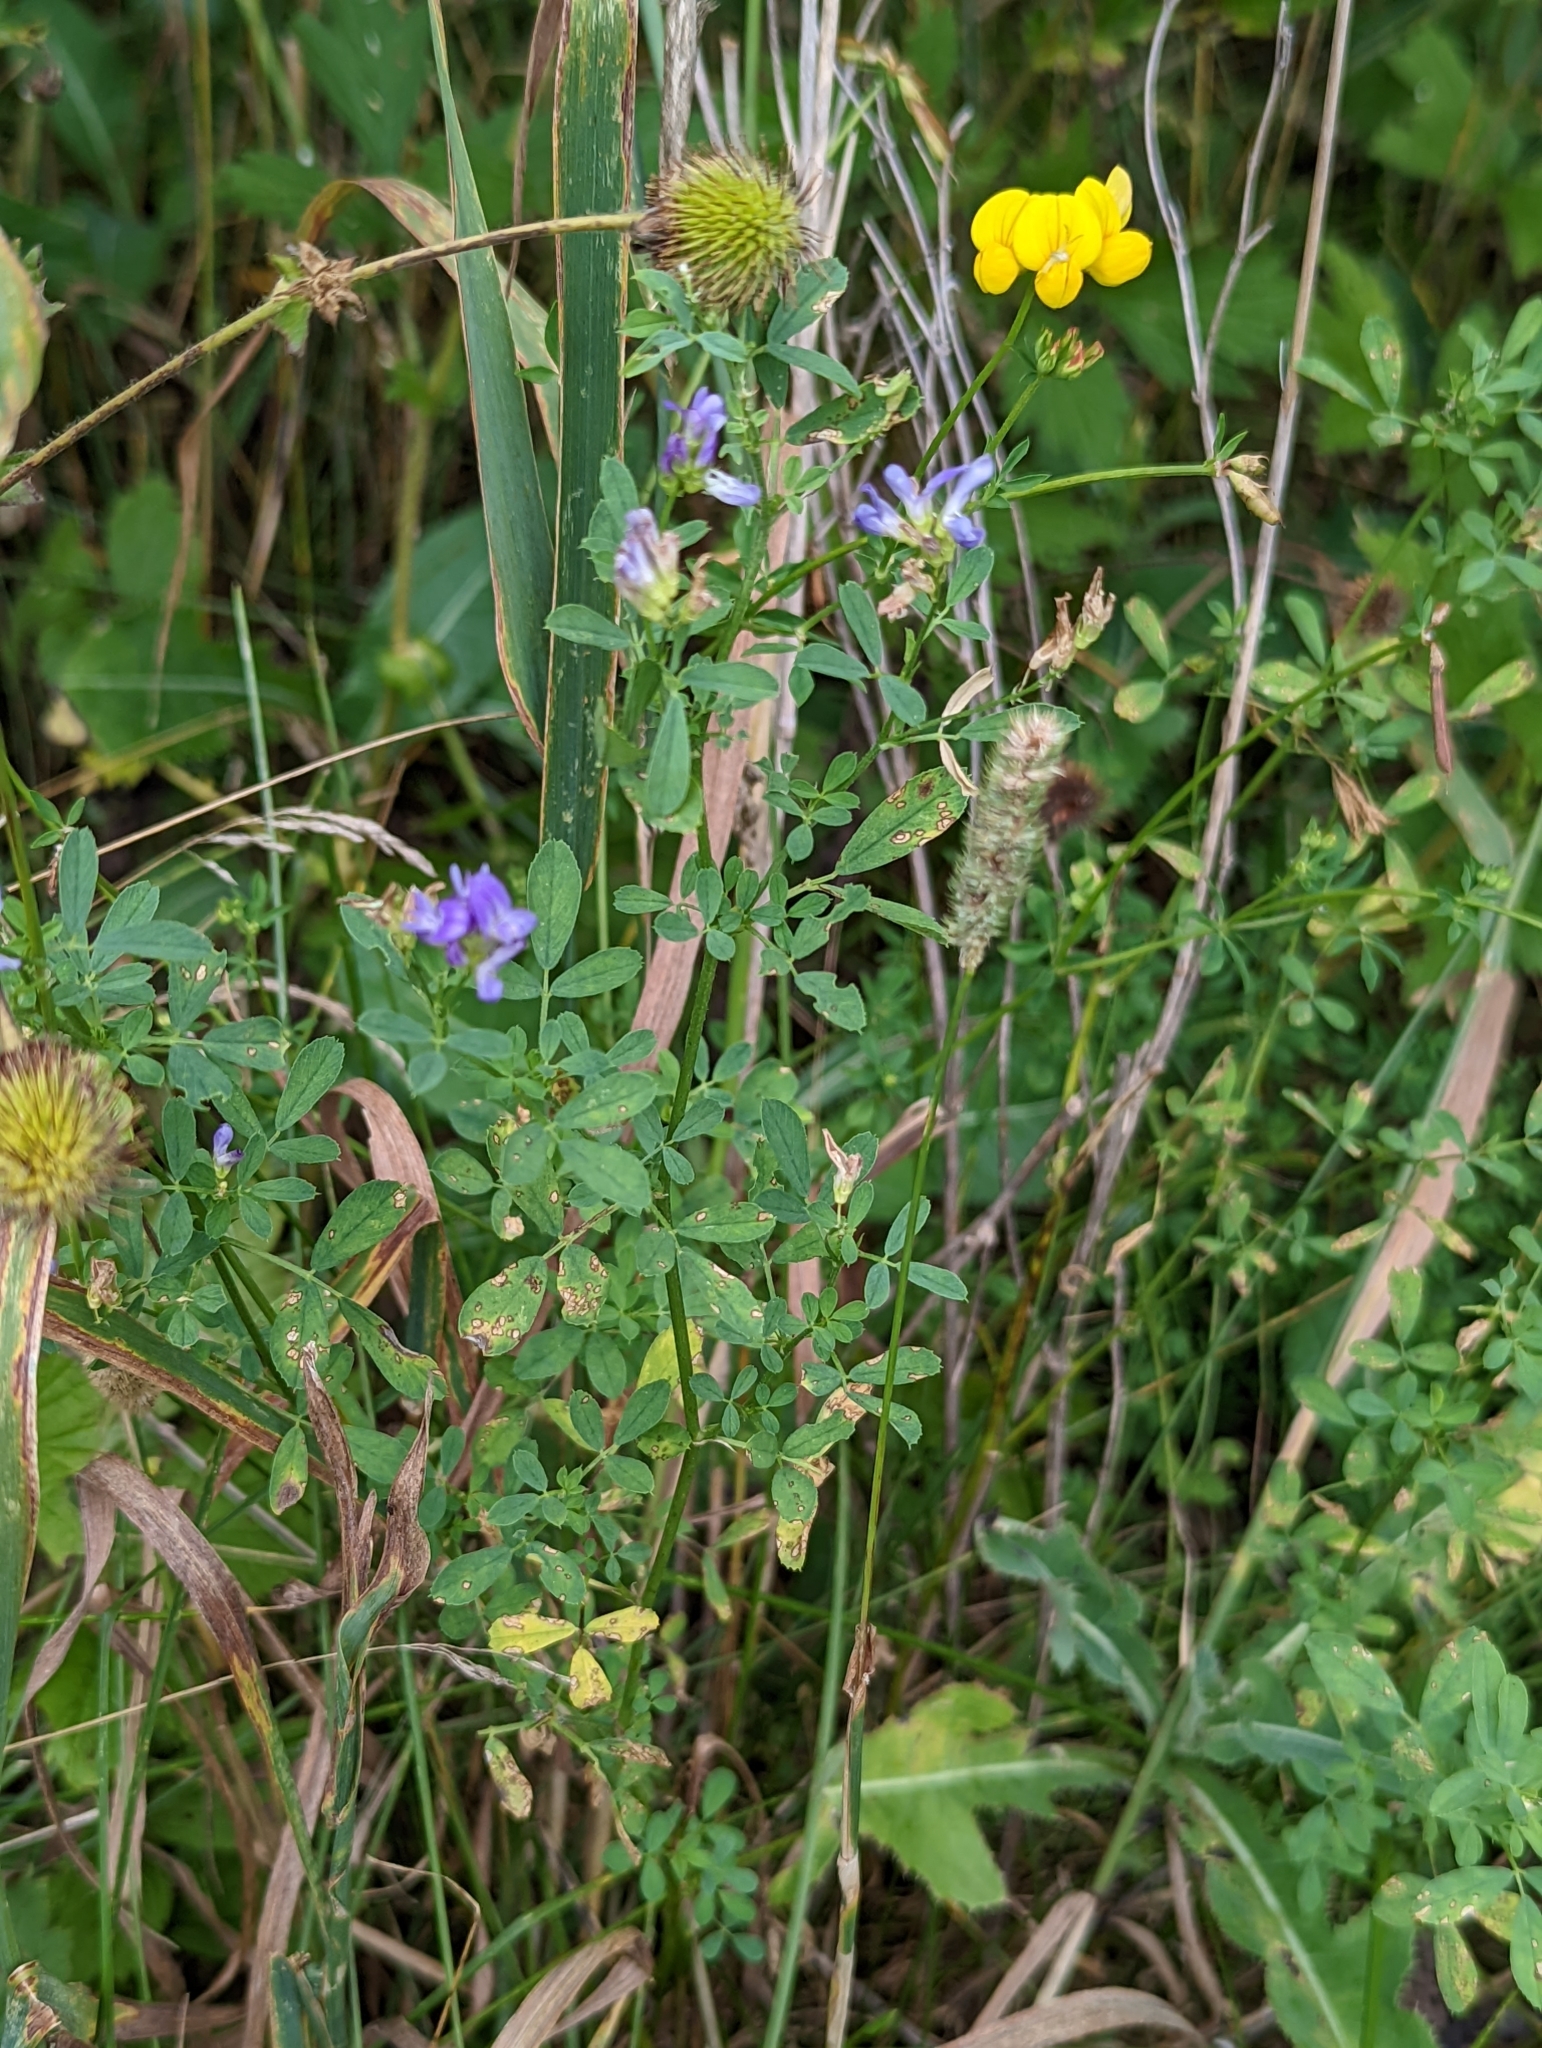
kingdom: Plantae
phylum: Tracheophyta
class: Magnoliopsida
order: Fabales
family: Fabaceae
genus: Medicago
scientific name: Medicago sativa
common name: Alfalfa
